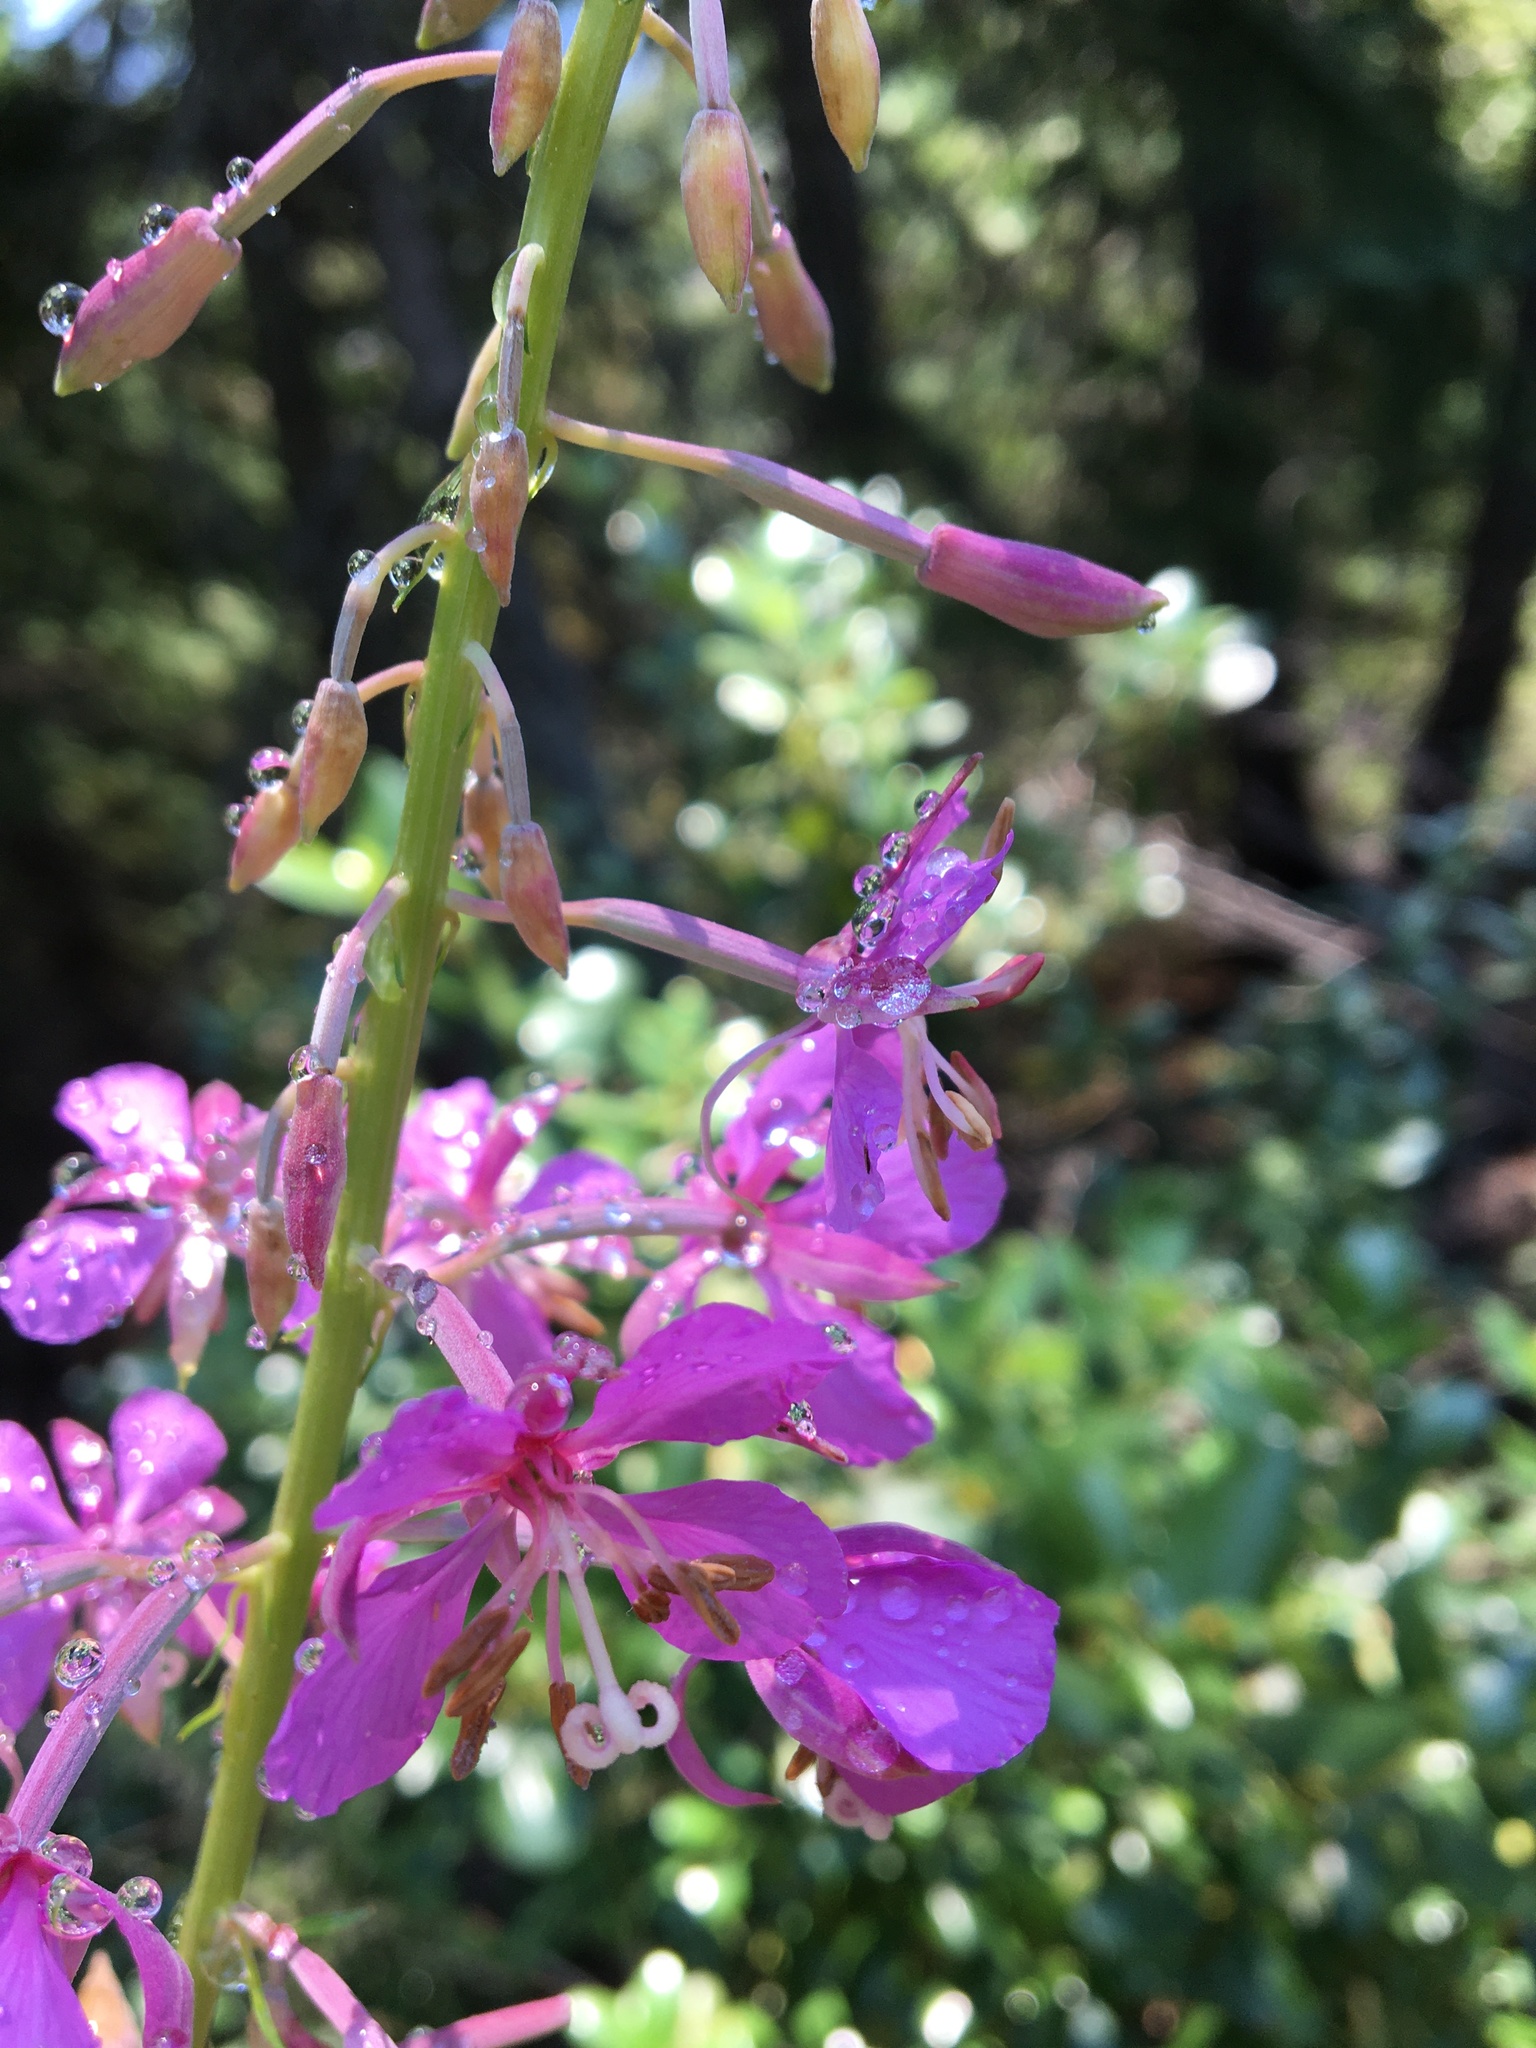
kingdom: Plantae
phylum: Tracheophyta
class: Magnoliopsida
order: Myrtales
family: Onagraceae
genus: Chamaenerion
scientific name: Chamaenerion angustifolium
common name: Fireweed
